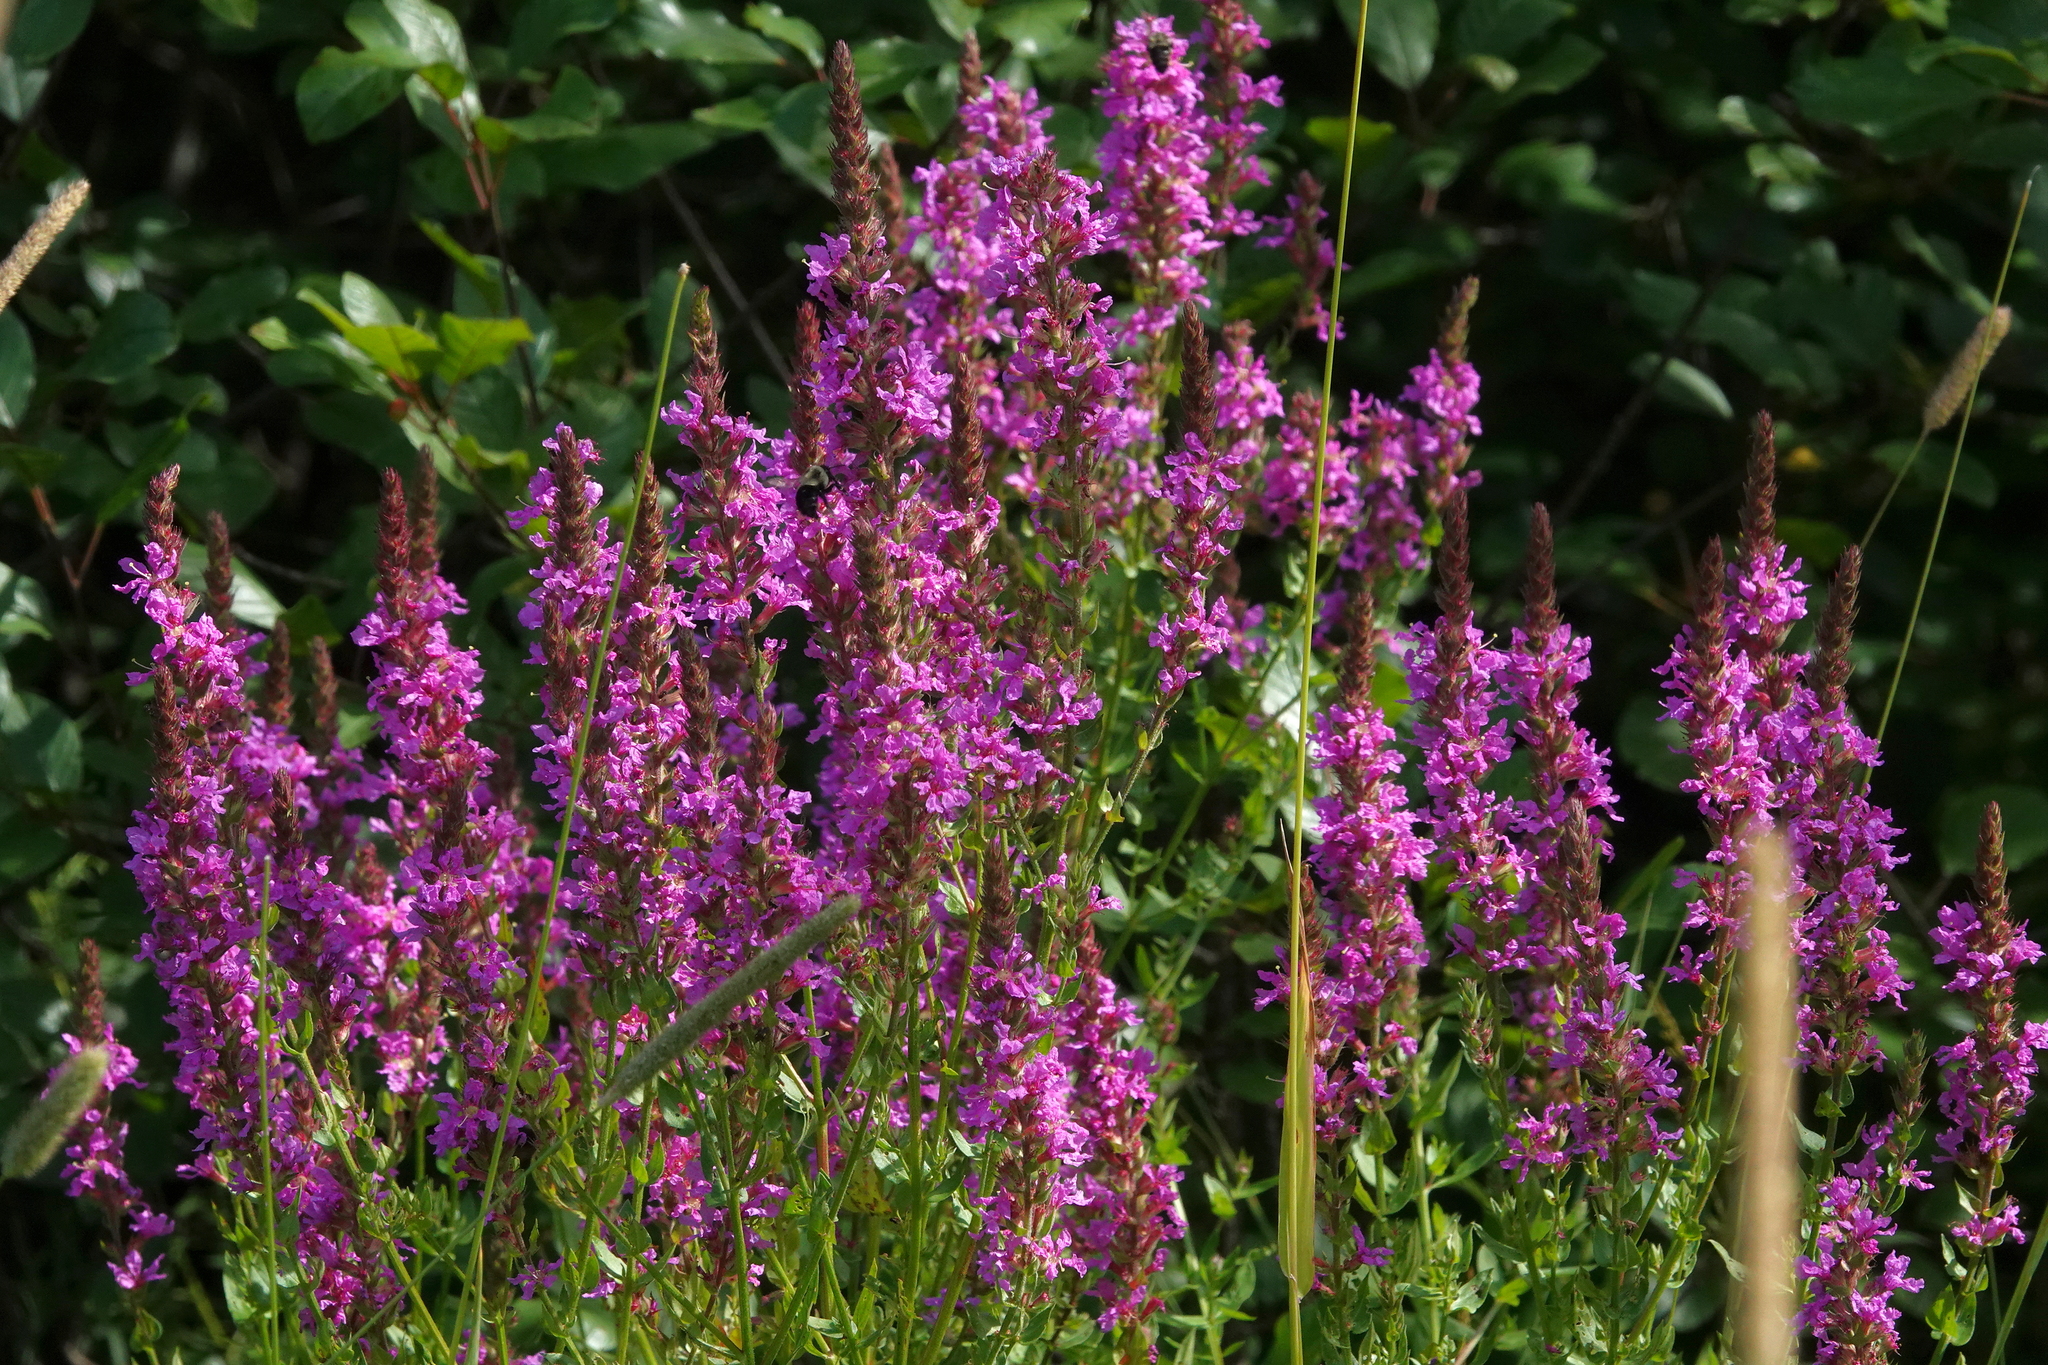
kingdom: Plantae
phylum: Tracheophyta
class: Magnoliopsida
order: Myrtales
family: Lythraceae
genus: Lythrum
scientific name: Lythrum salicaria
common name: Purple loosestrife
